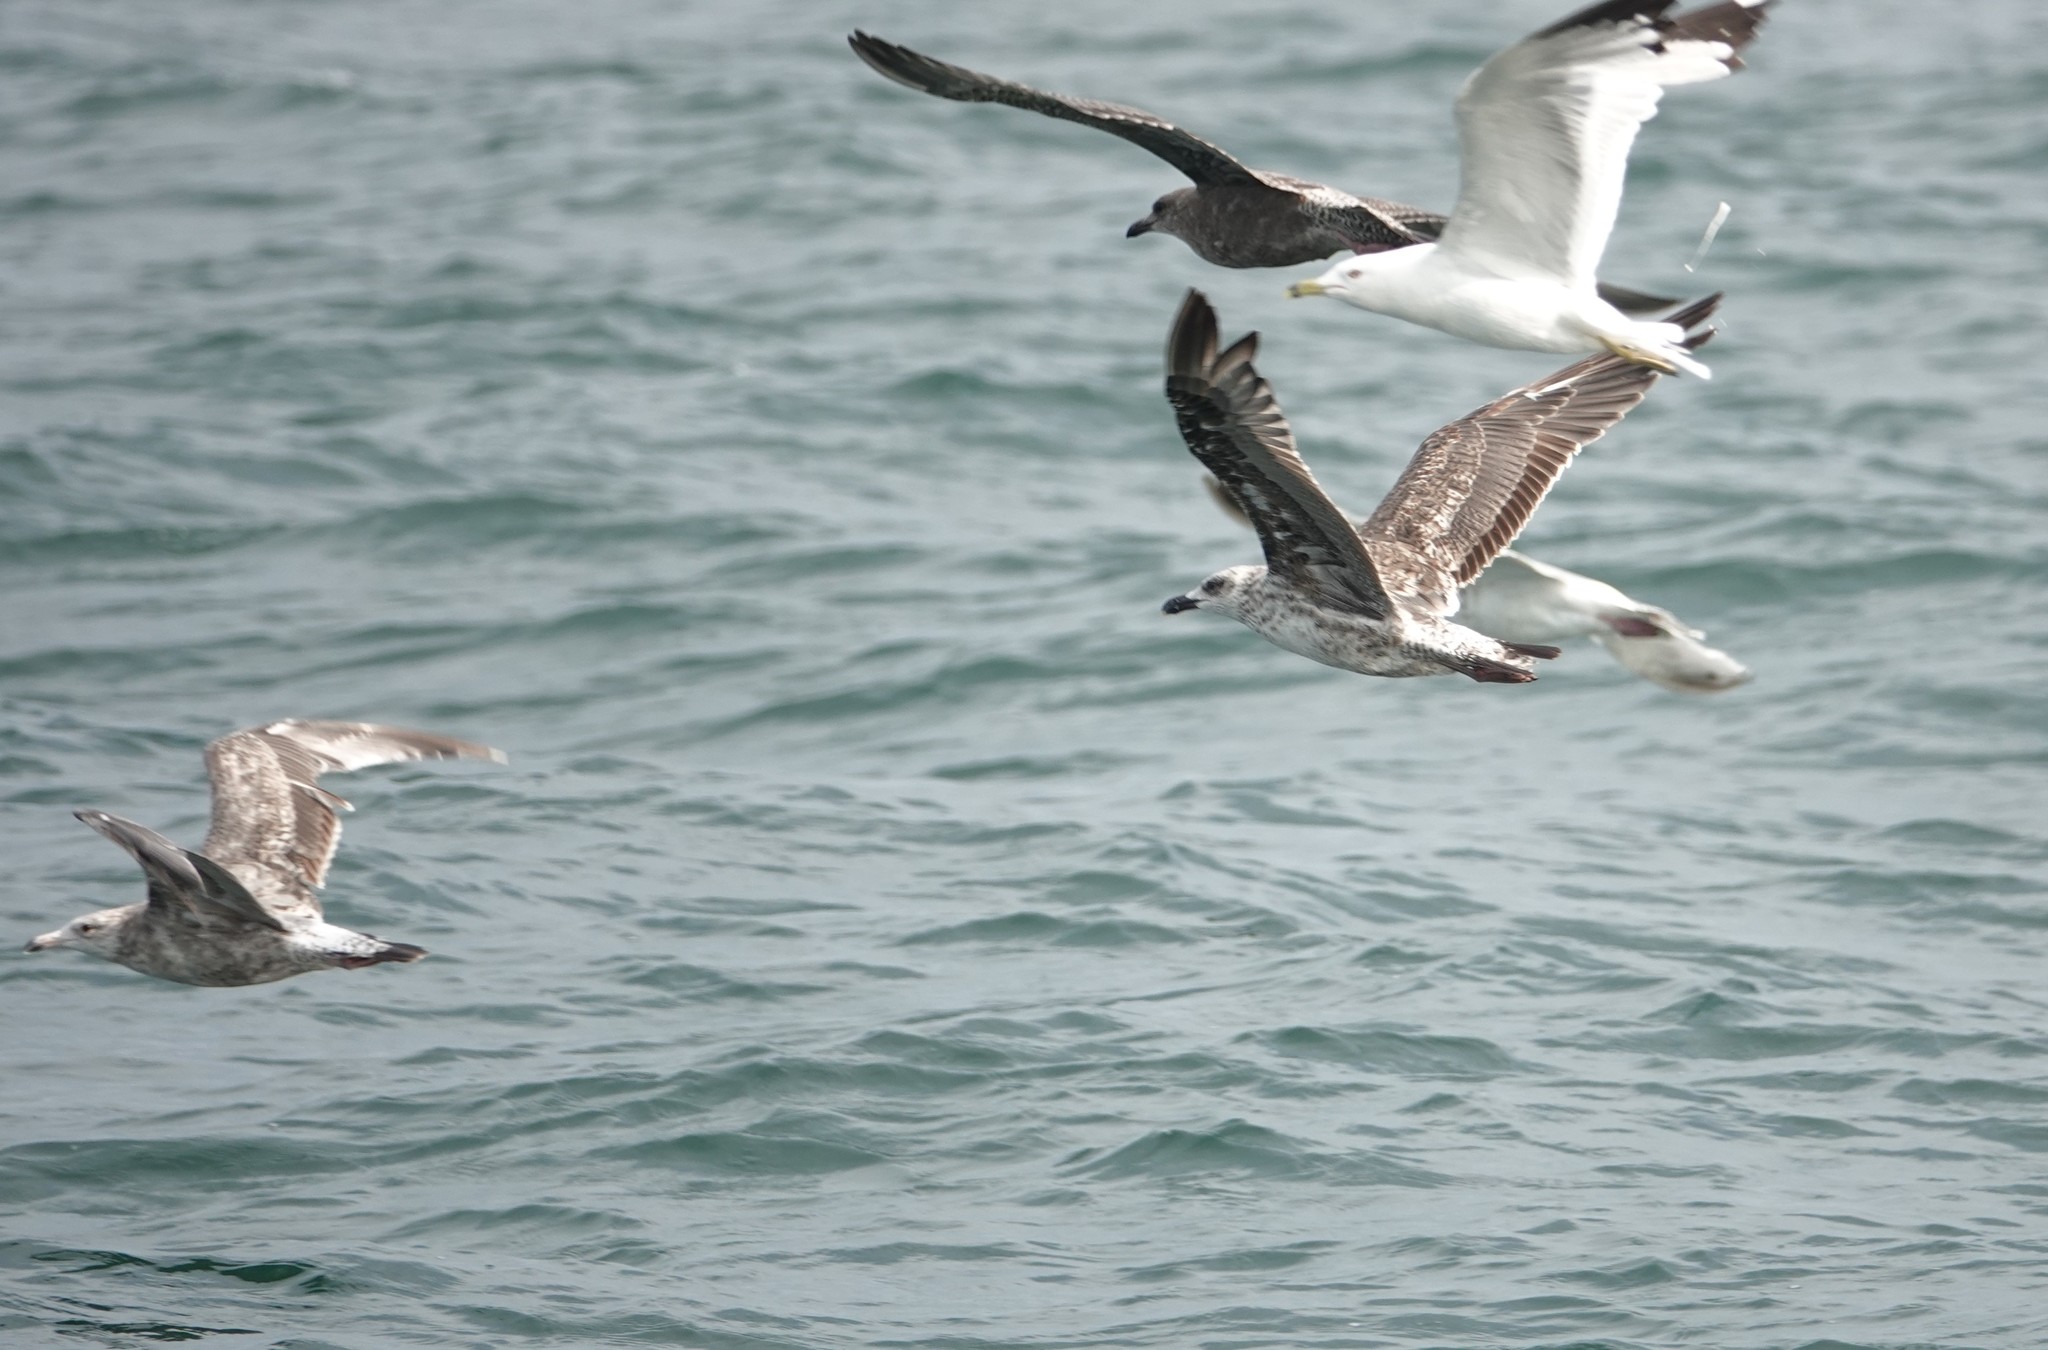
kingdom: Animalia
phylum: Chordata
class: Aves
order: Charadriiformes
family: Laridae
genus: Larus
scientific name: Larus fuscus
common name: Lesser black-backed gull
